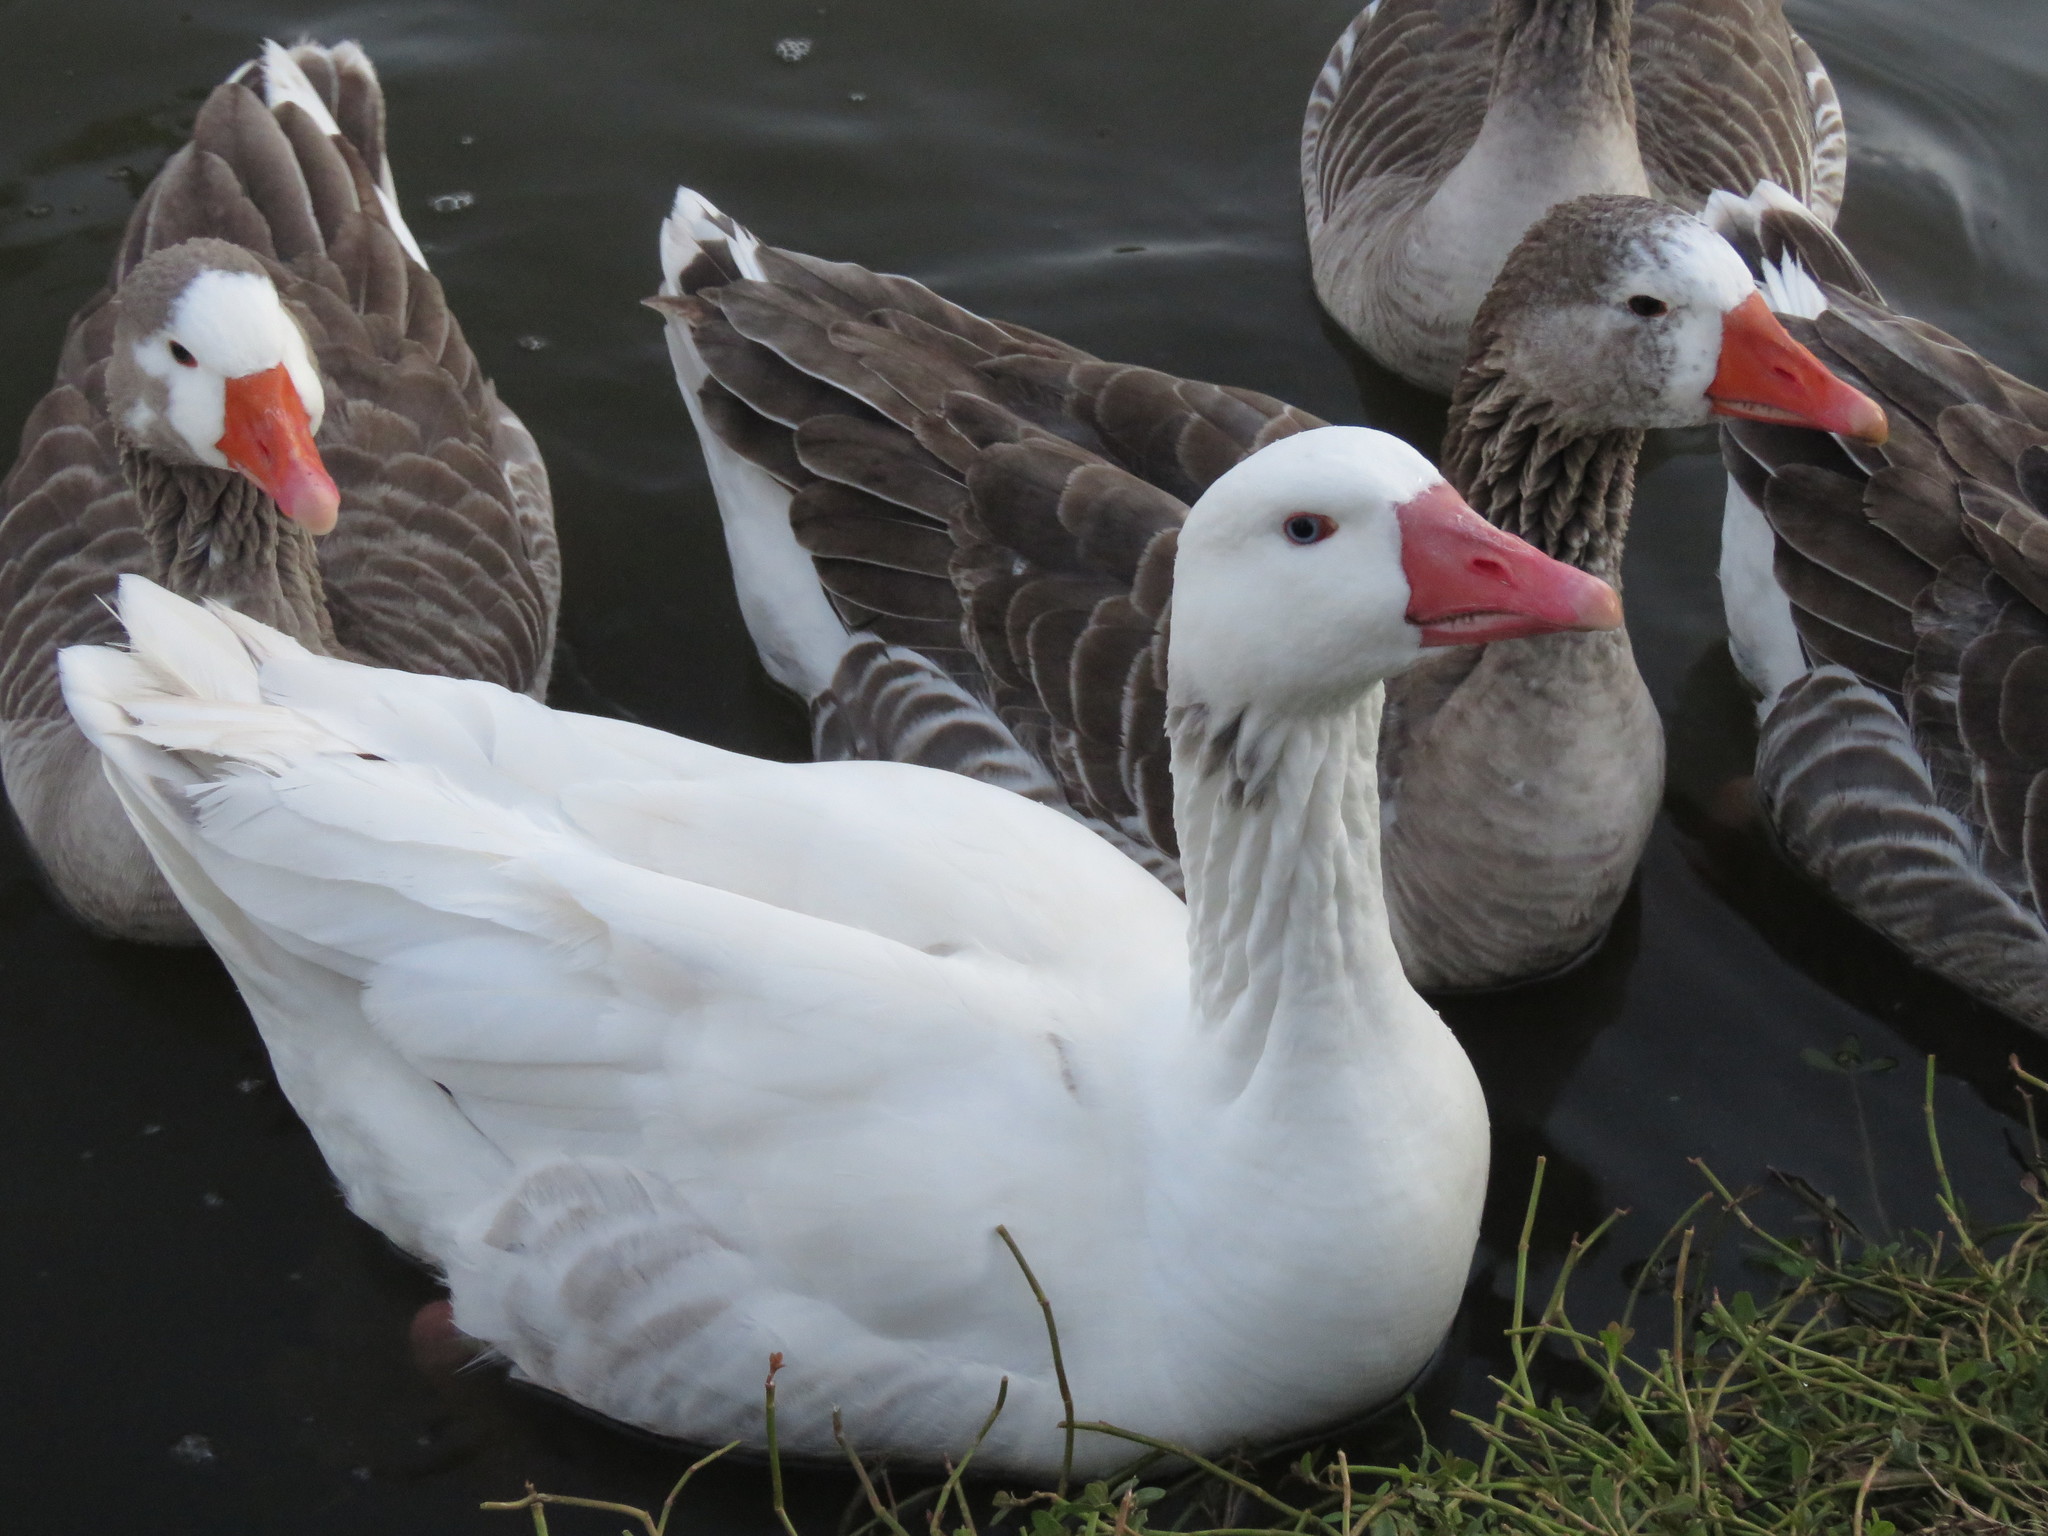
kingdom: Animalia
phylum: Chordata
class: Aves
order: Anseriformes
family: Anatidae
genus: Anser
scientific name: Anser anser
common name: Greylag goose
